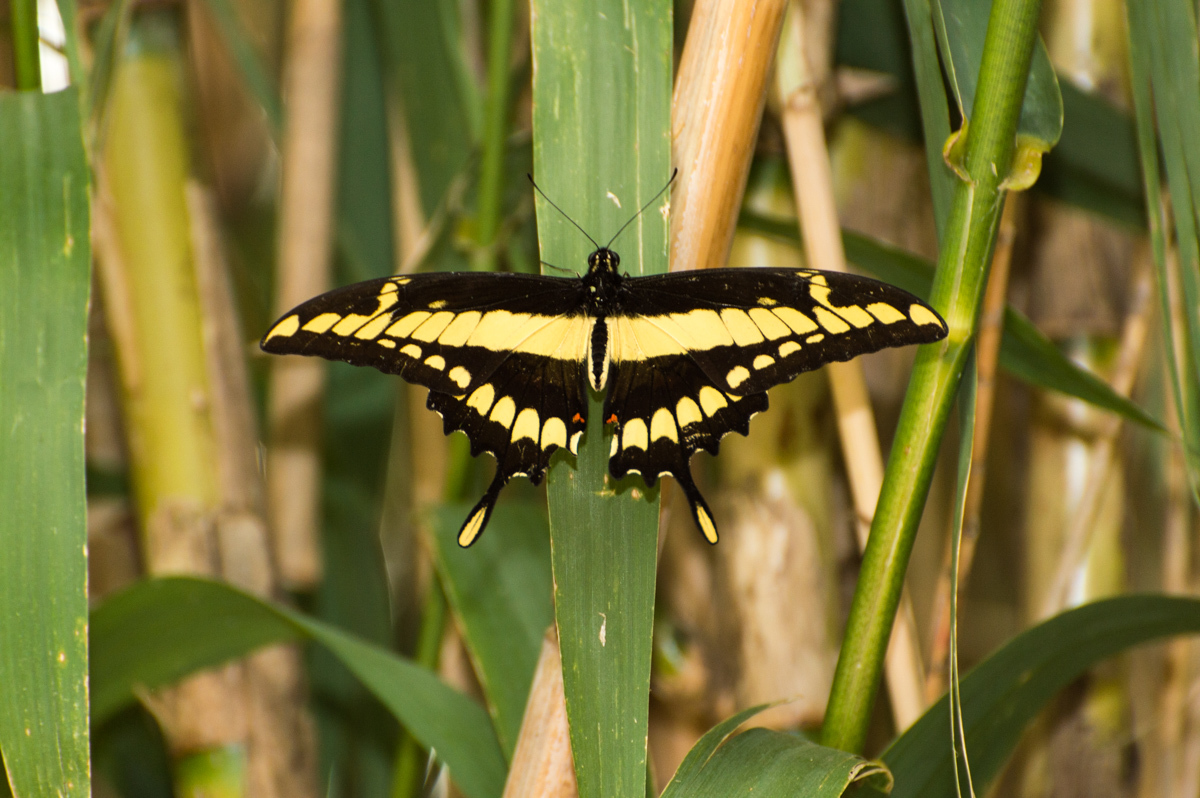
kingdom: Animalia
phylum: Arthropoda
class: Insecta
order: Lepidoptera
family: Papilionidae
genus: Papilio
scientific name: Papilio thoas
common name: King swallowtail
